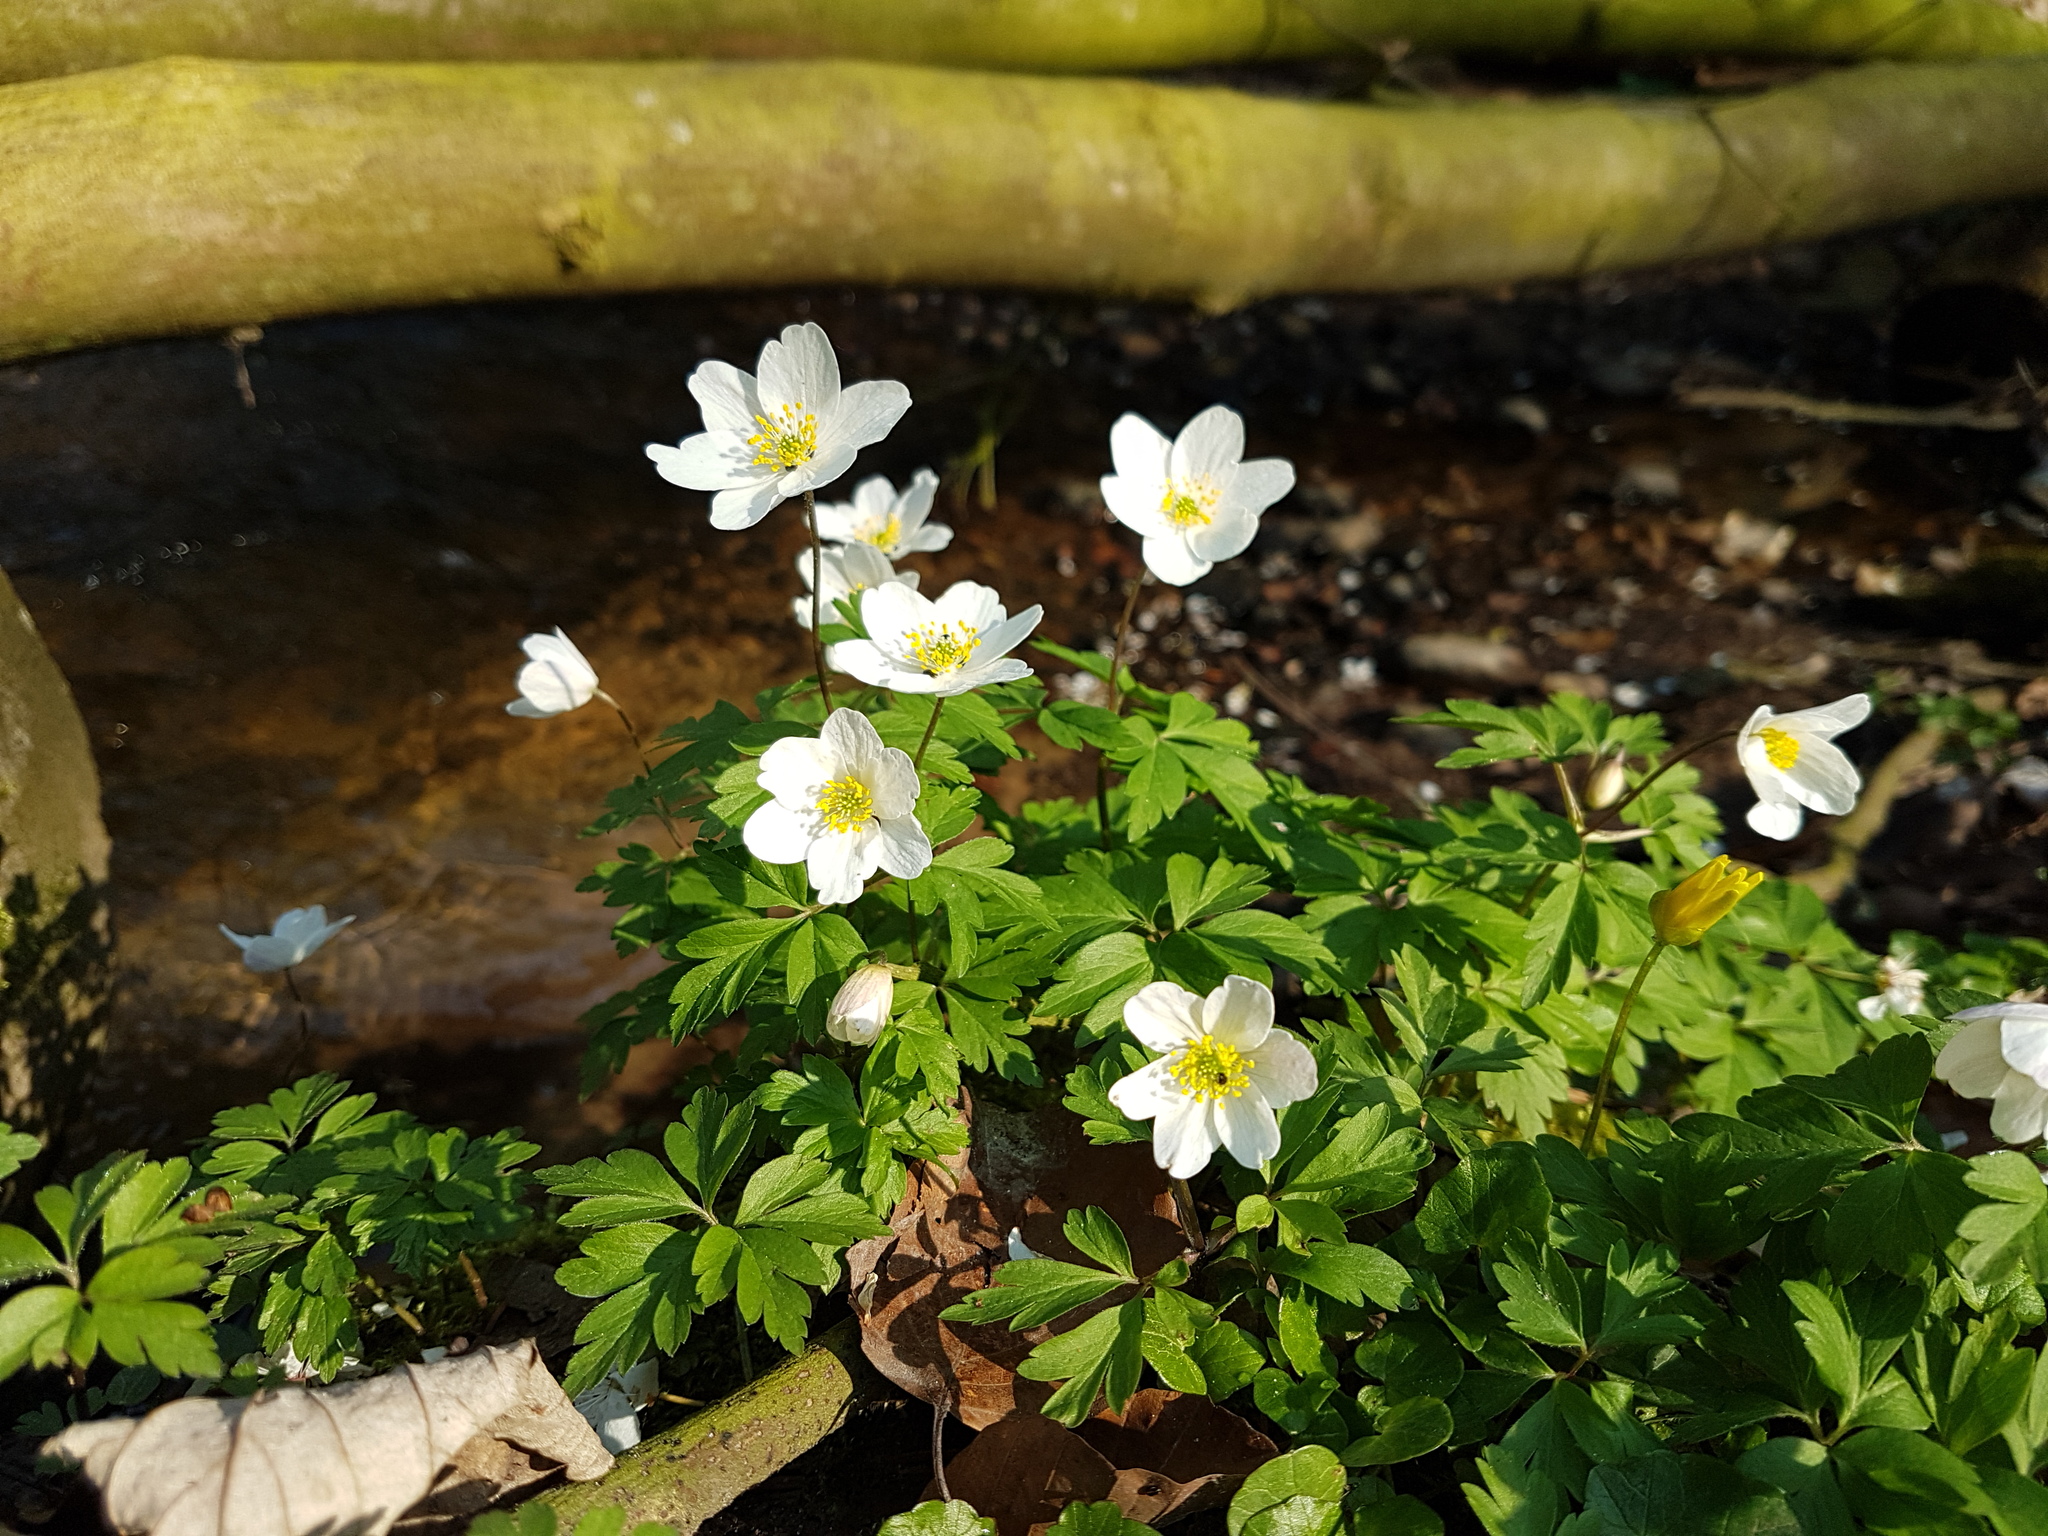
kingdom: Plantae
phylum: Tracheophyta
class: Magnoliopsida
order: Ranunculales
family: Ranunculaceae
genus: Anemone
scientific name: Anemone nemorosa
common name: Wood anemone
